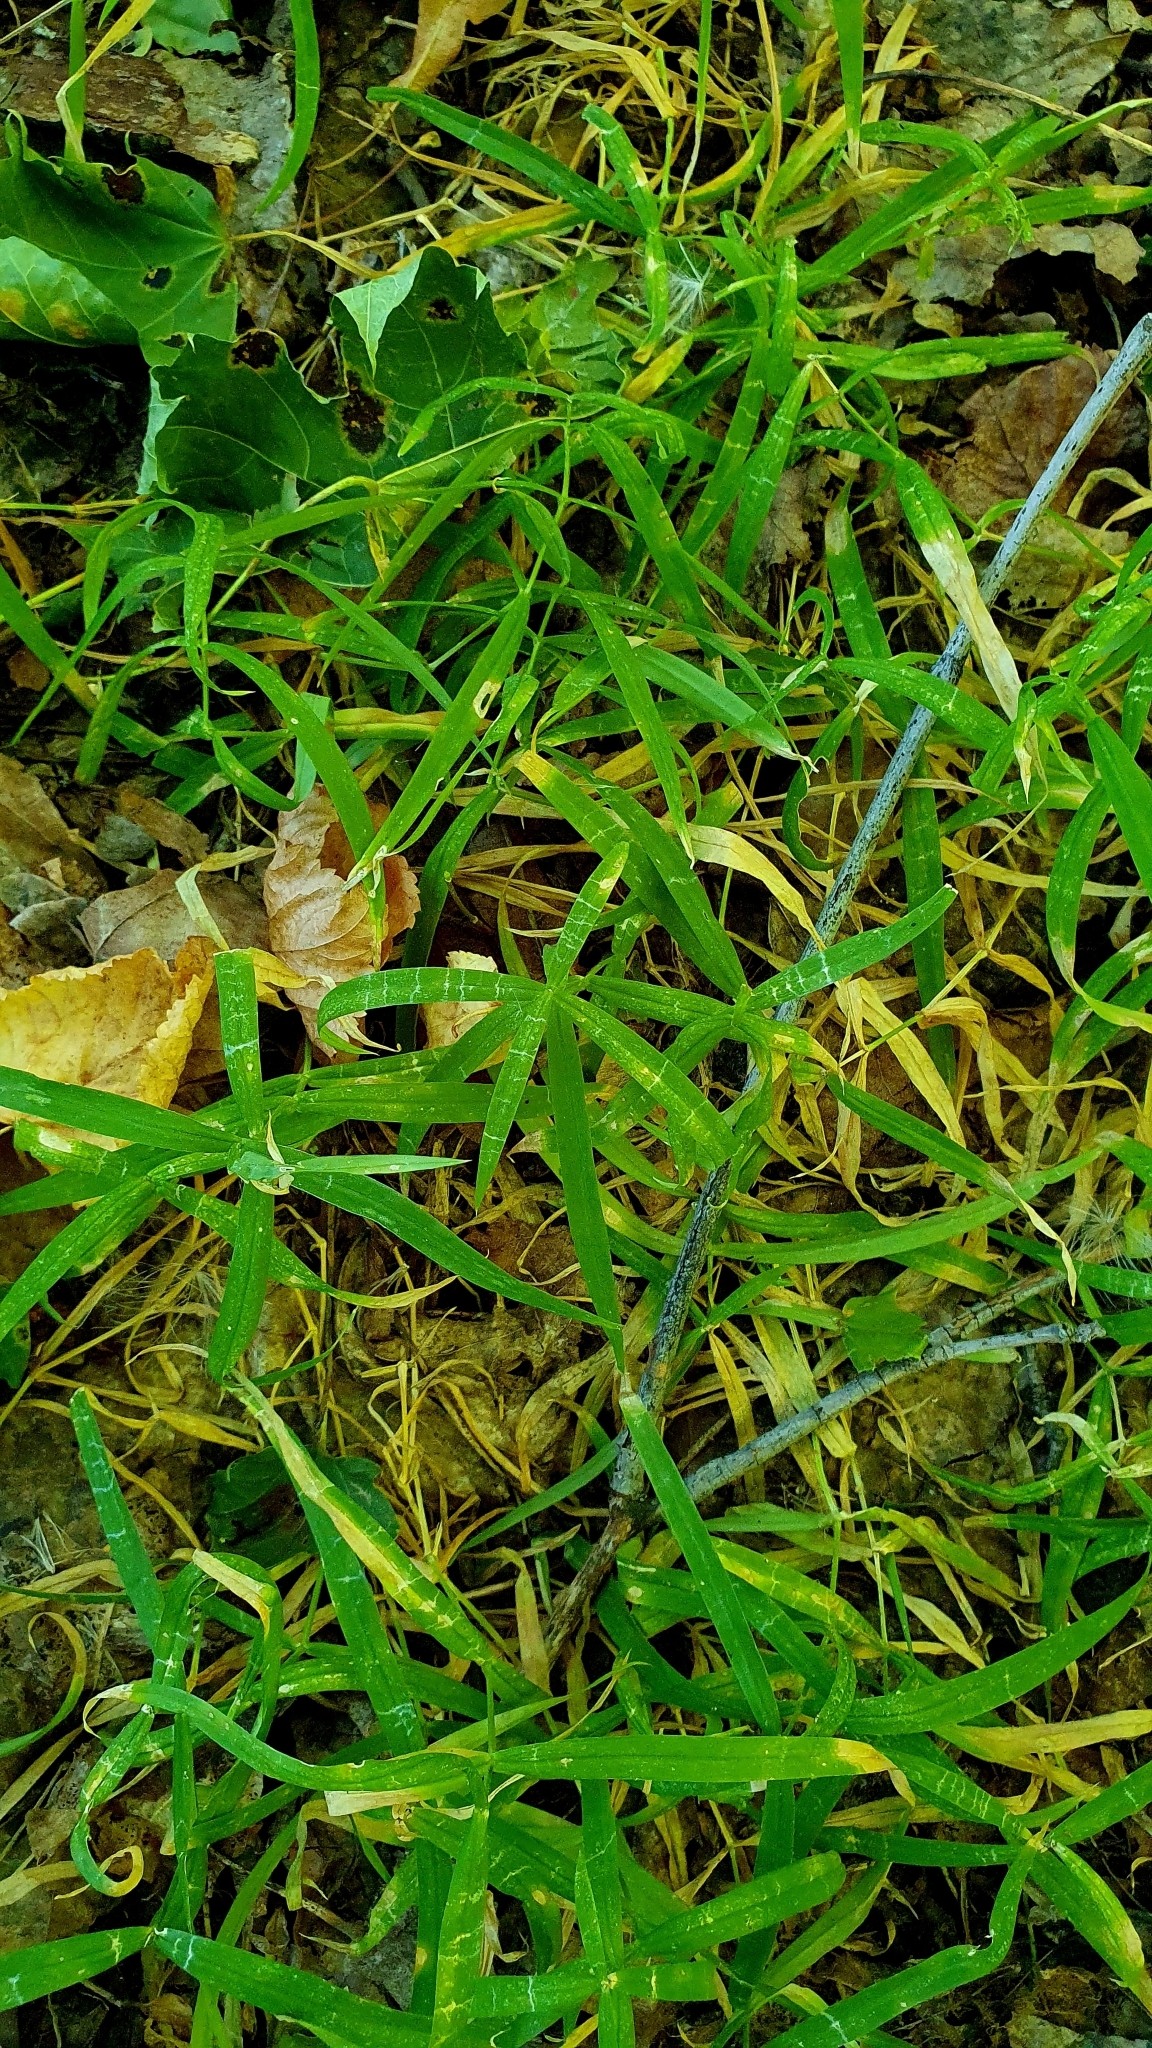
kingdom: Plantae
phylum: Tracheophyta
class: Magnoliopsida
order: Caryophyllales
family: Caryophyllaceae
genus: Rabelera
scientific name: Rabelera holostea
